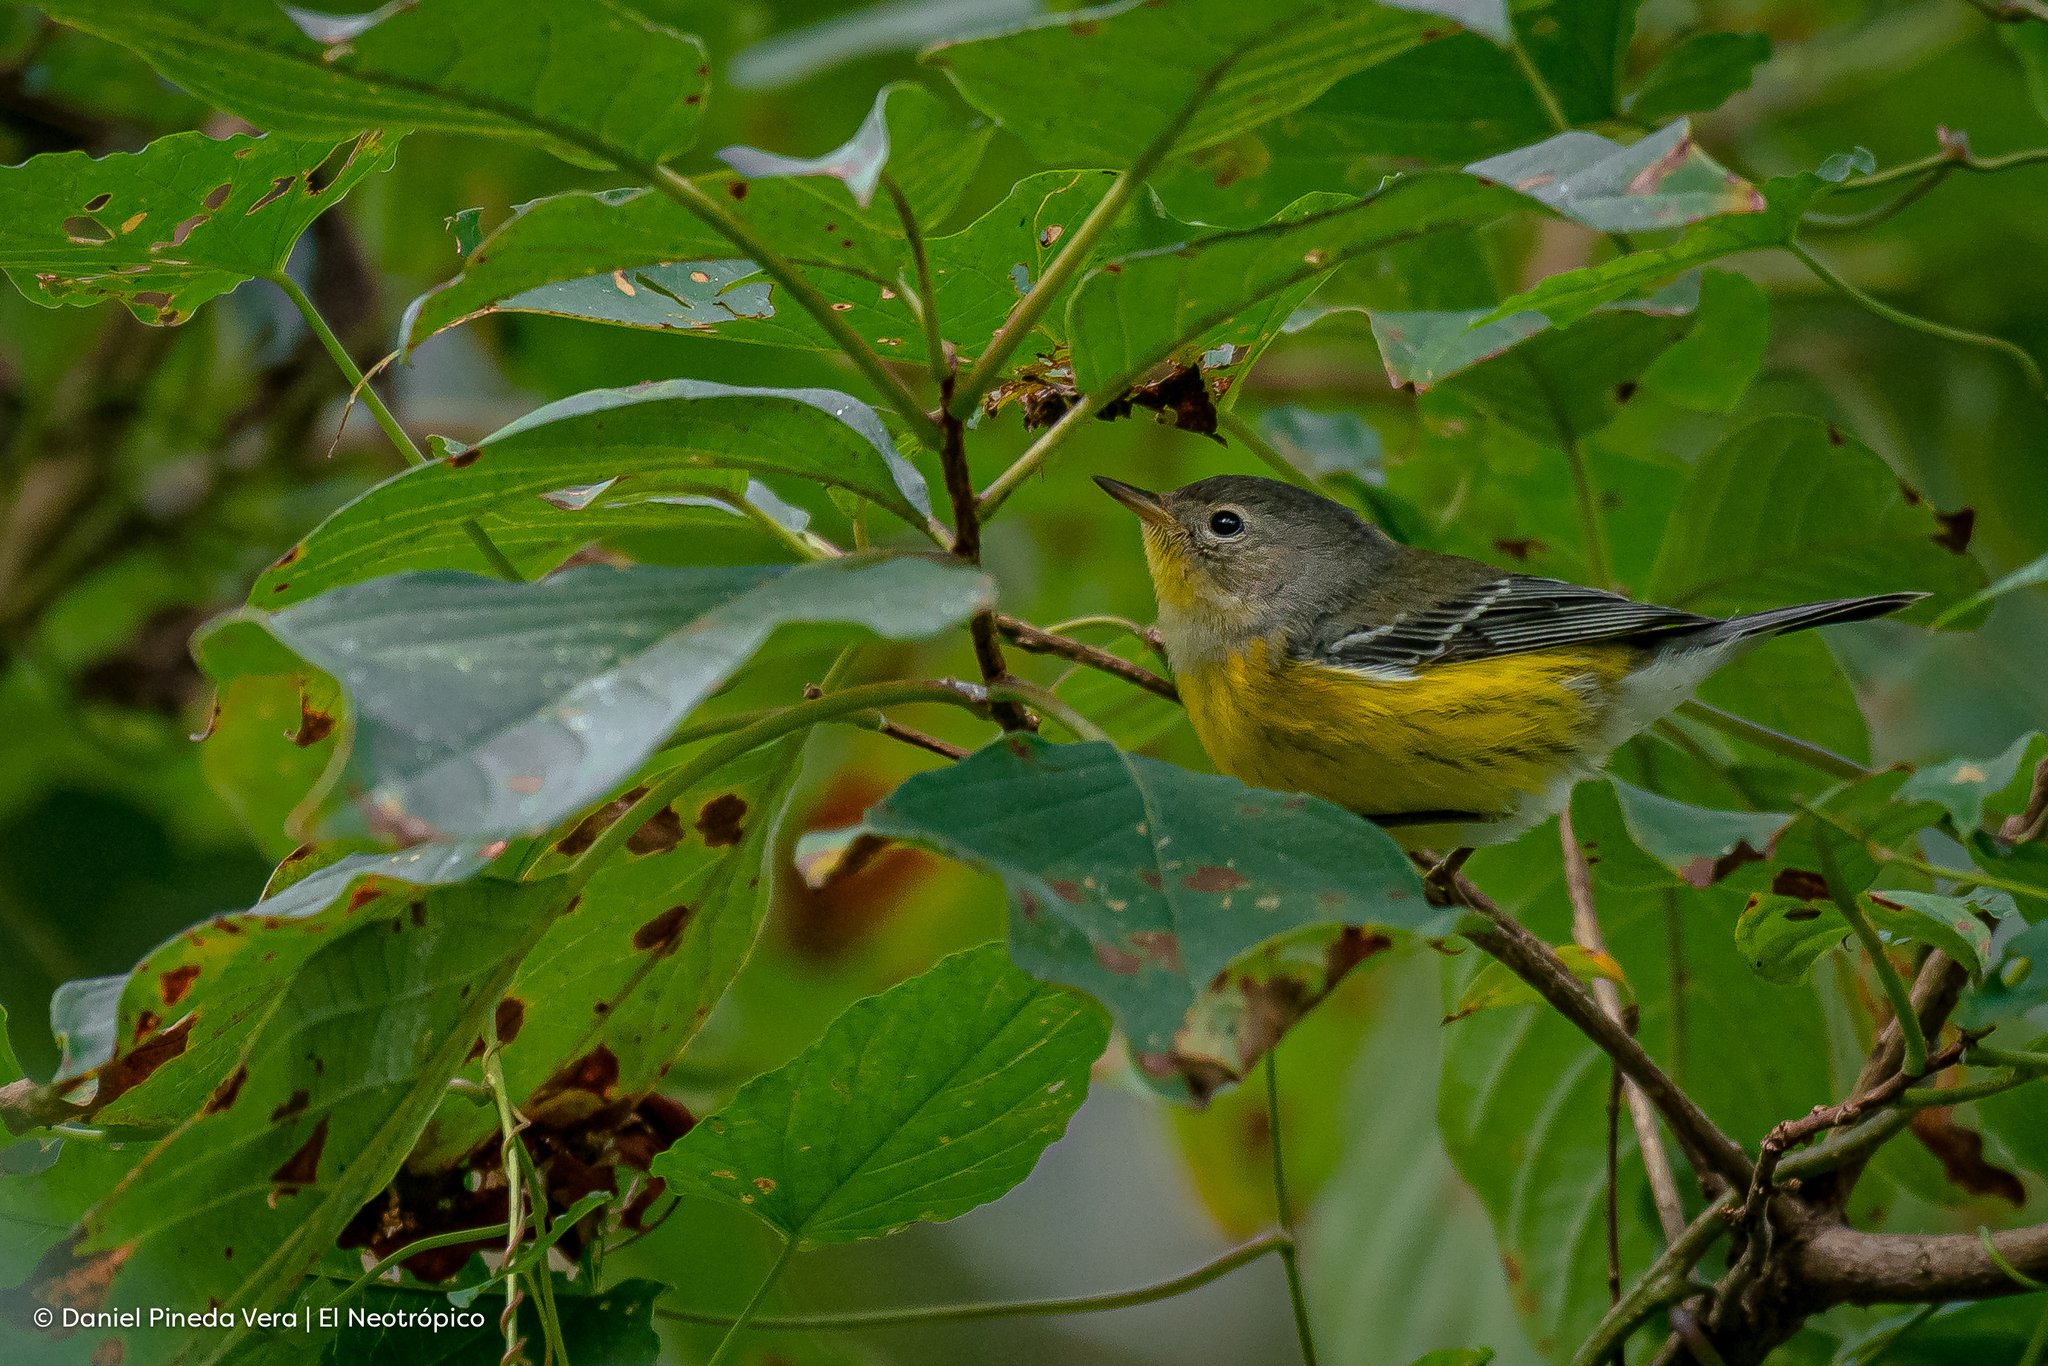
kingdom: Animalia
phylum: Chordata
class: Aves
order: Passeriformes
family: Parulidae
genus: Setophaga
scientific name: Setophaga magnolia
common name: Magnolia warbler
